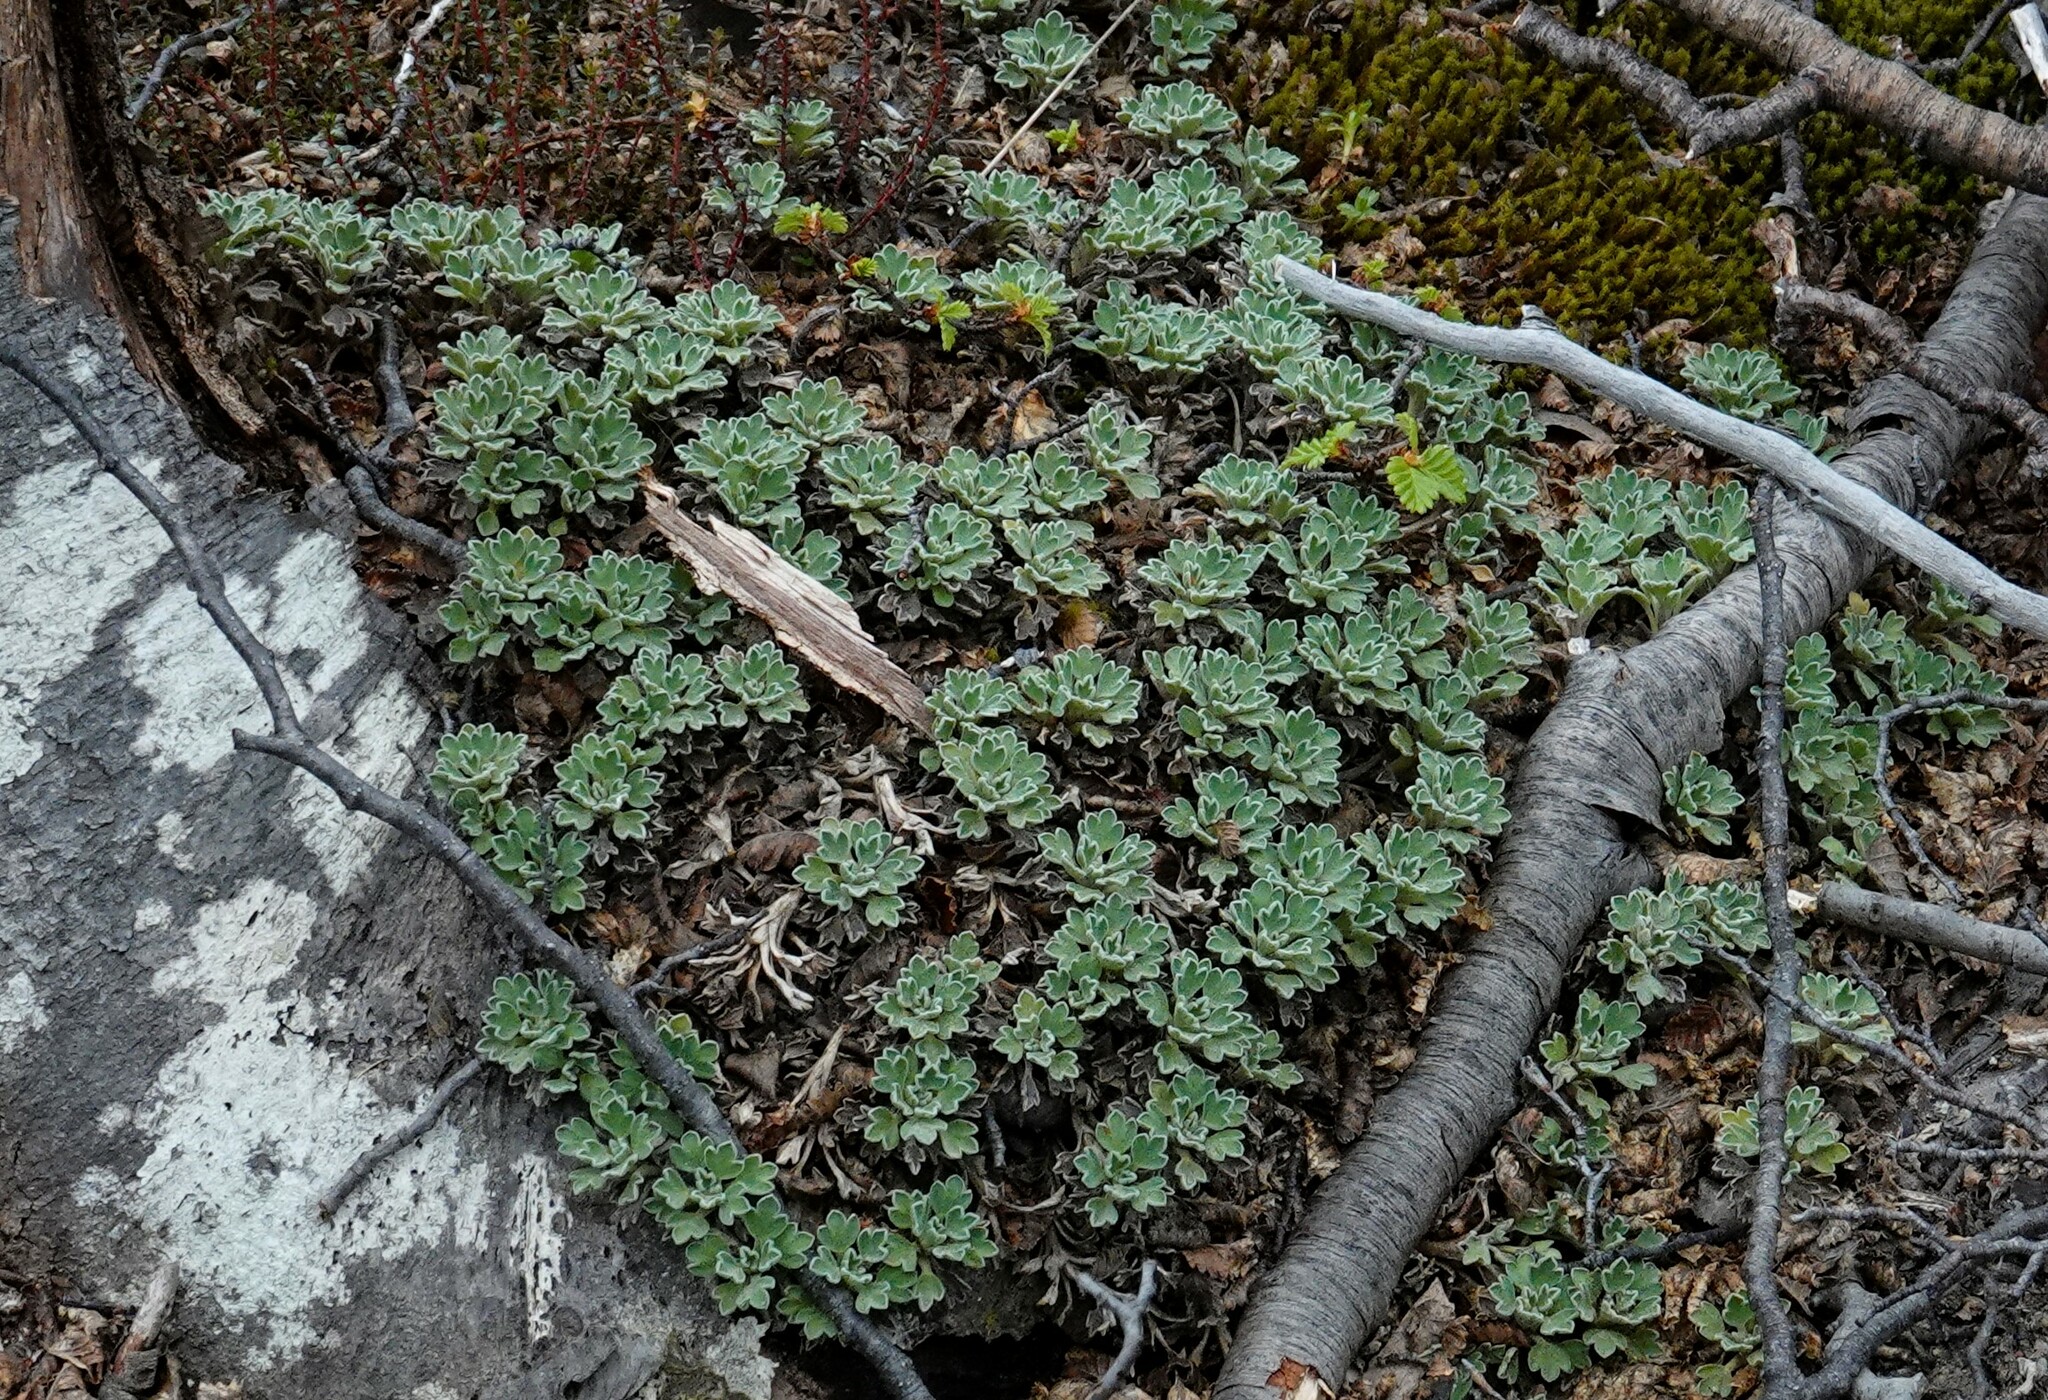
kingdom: Plantae
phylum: Tracheophyta
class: Magnoliopsida
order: Apiales
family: Apiaceae
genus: Bolax
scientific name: Bolax gummifera
